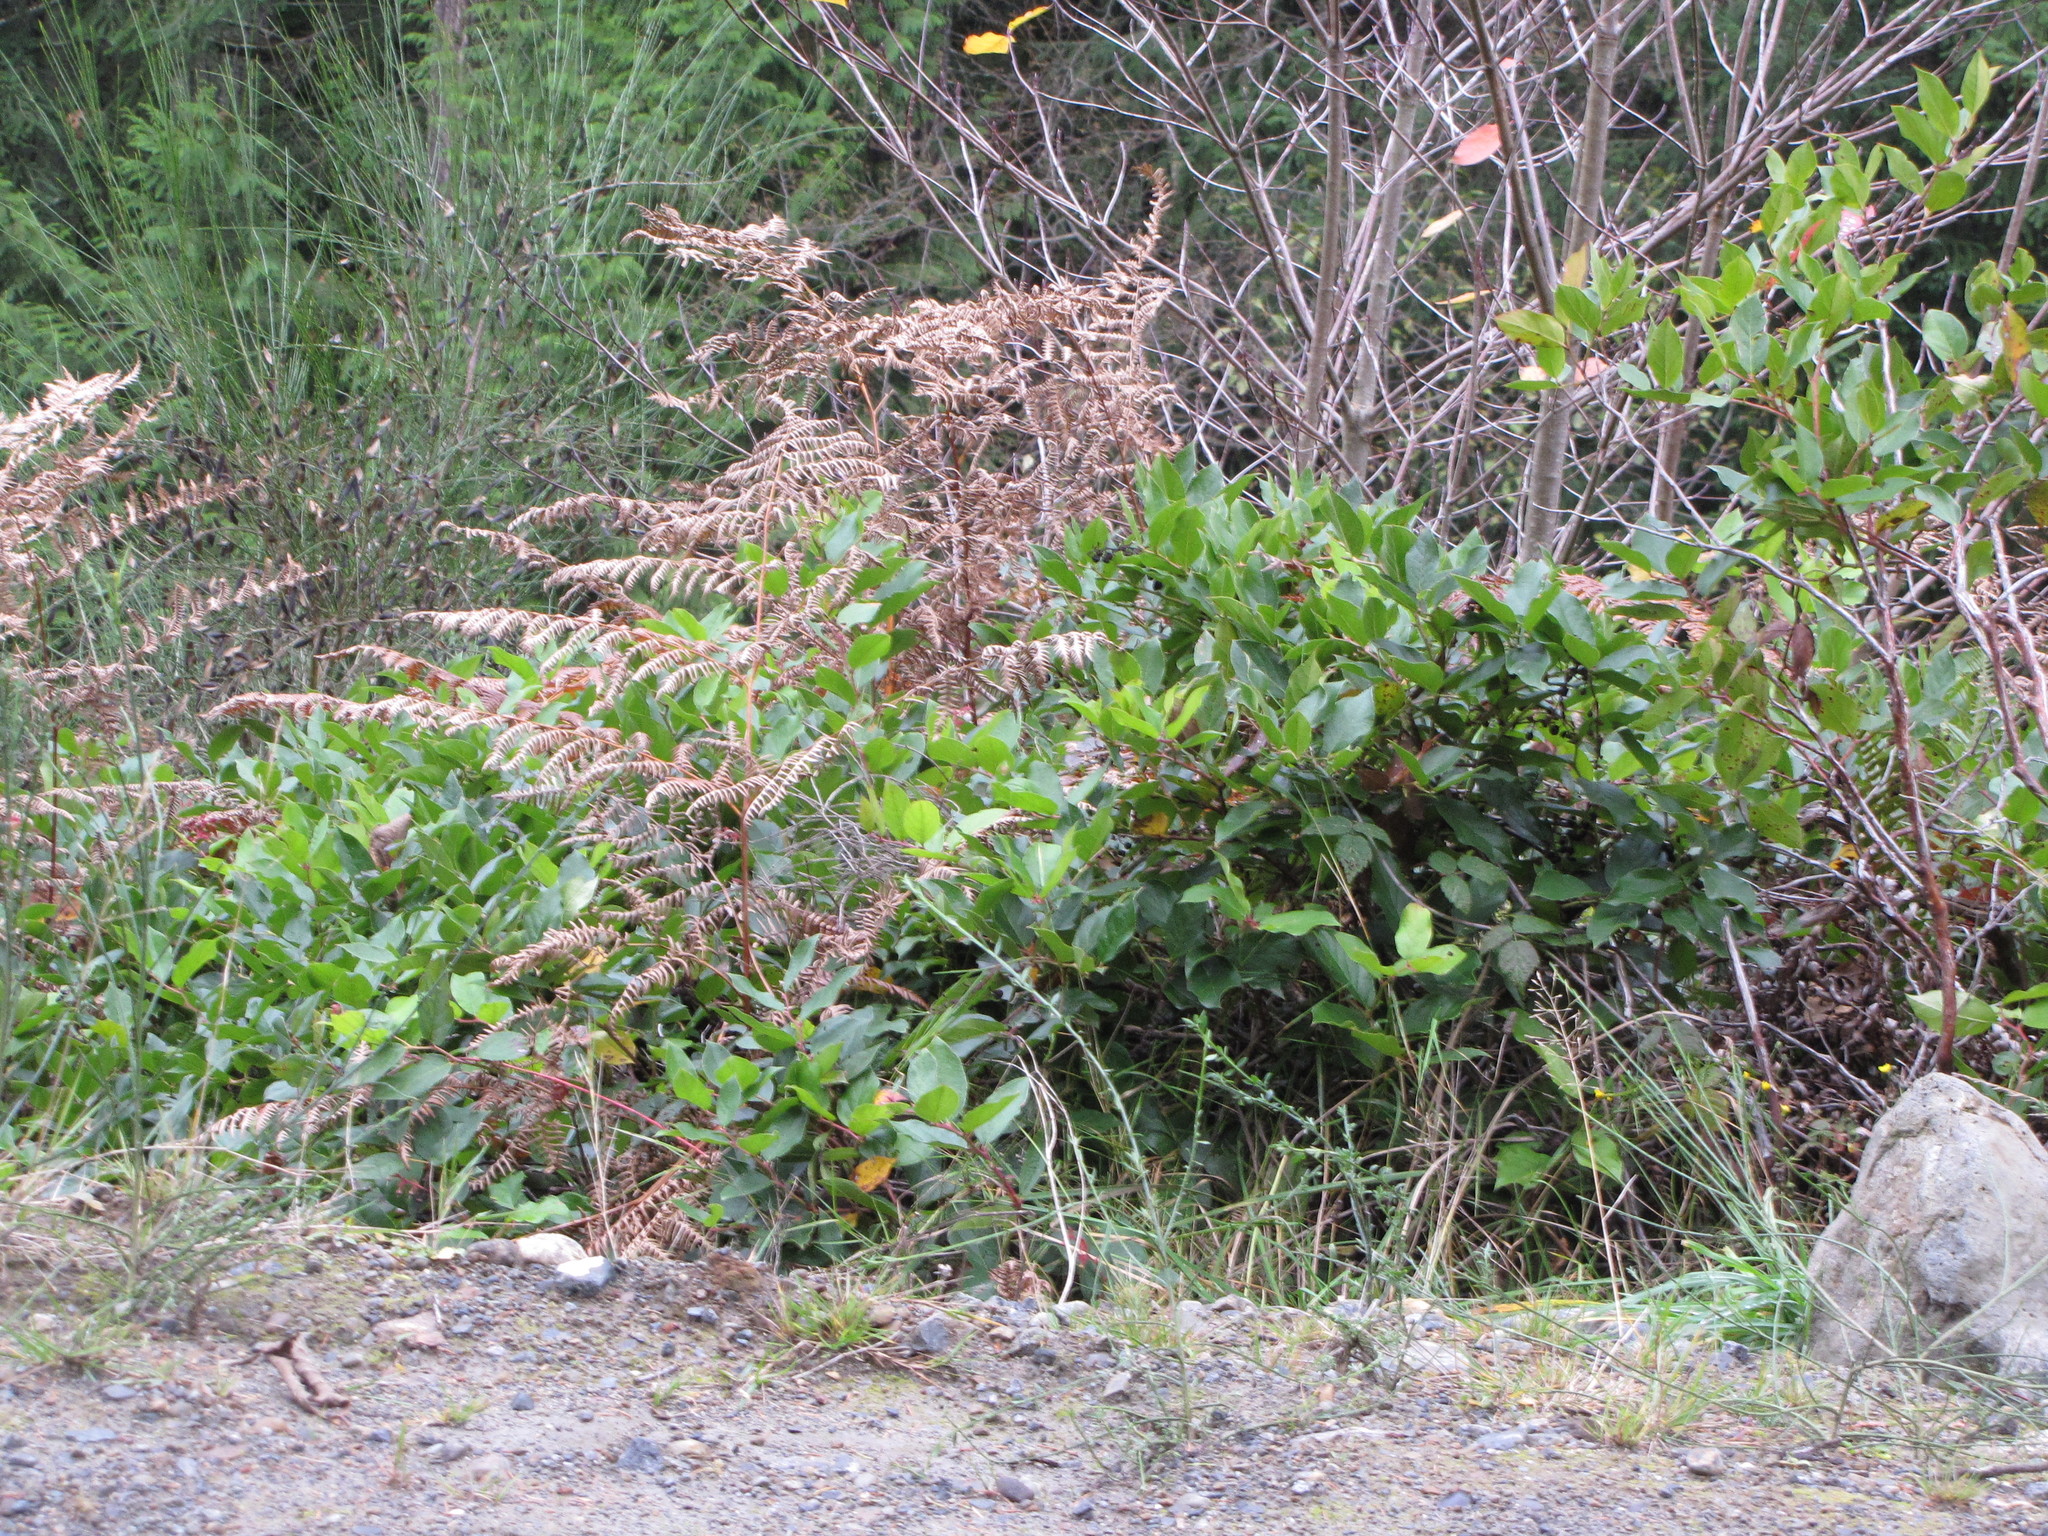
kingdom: Plantae
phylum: Tracheophyta
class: Magnoliopsida
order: Ericales
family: Ericaceae
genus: Gaultheria
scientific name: Gaultheria shallon
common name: Shallon
